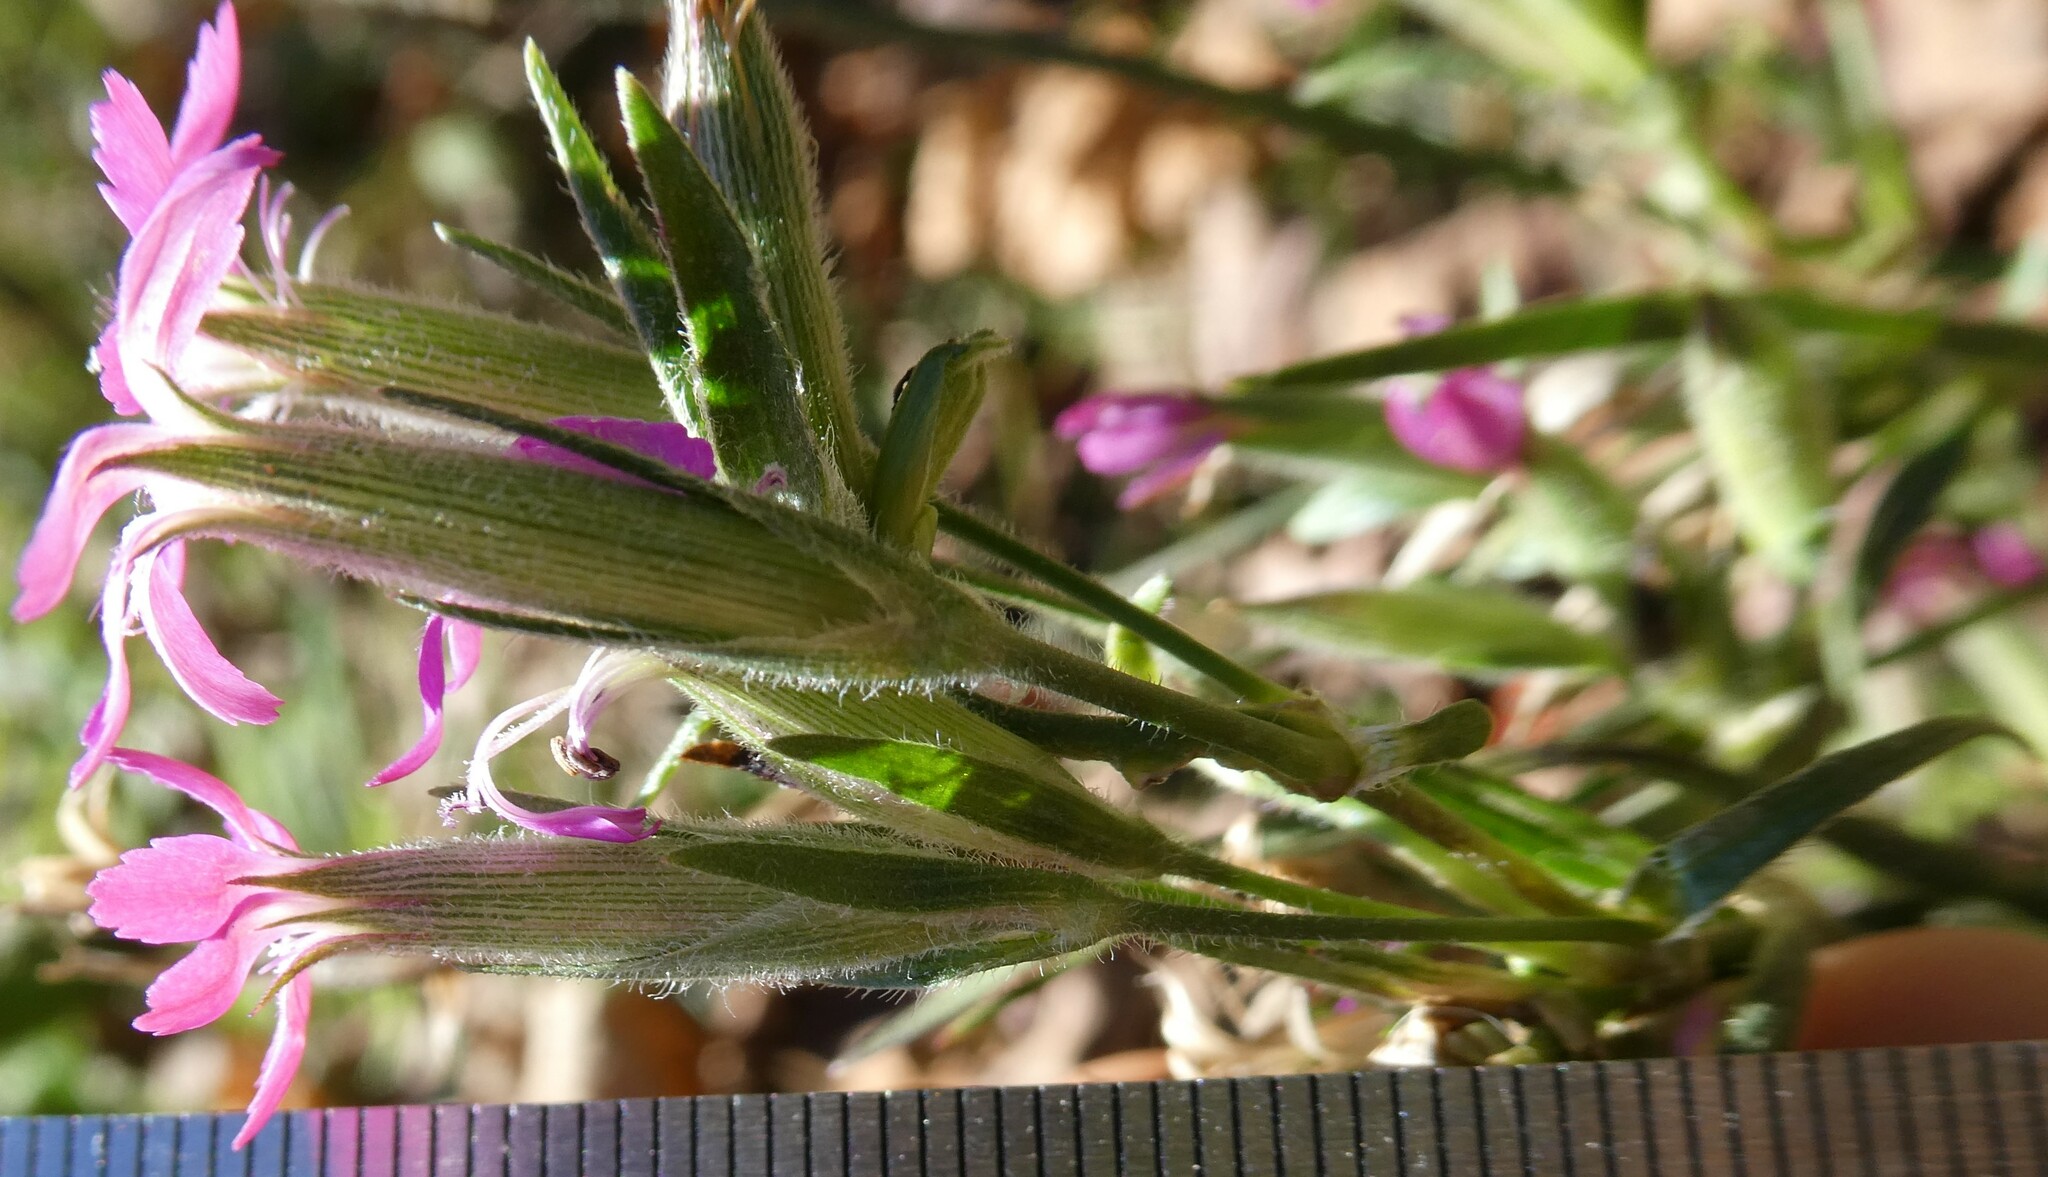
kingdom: Plantae
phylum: Tracheophyta
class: Magnoliopsida
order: Caryophyllales
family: Caryophyllaceae
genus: Dianthus
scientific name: Dianthus armeria
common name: Deptford pink
